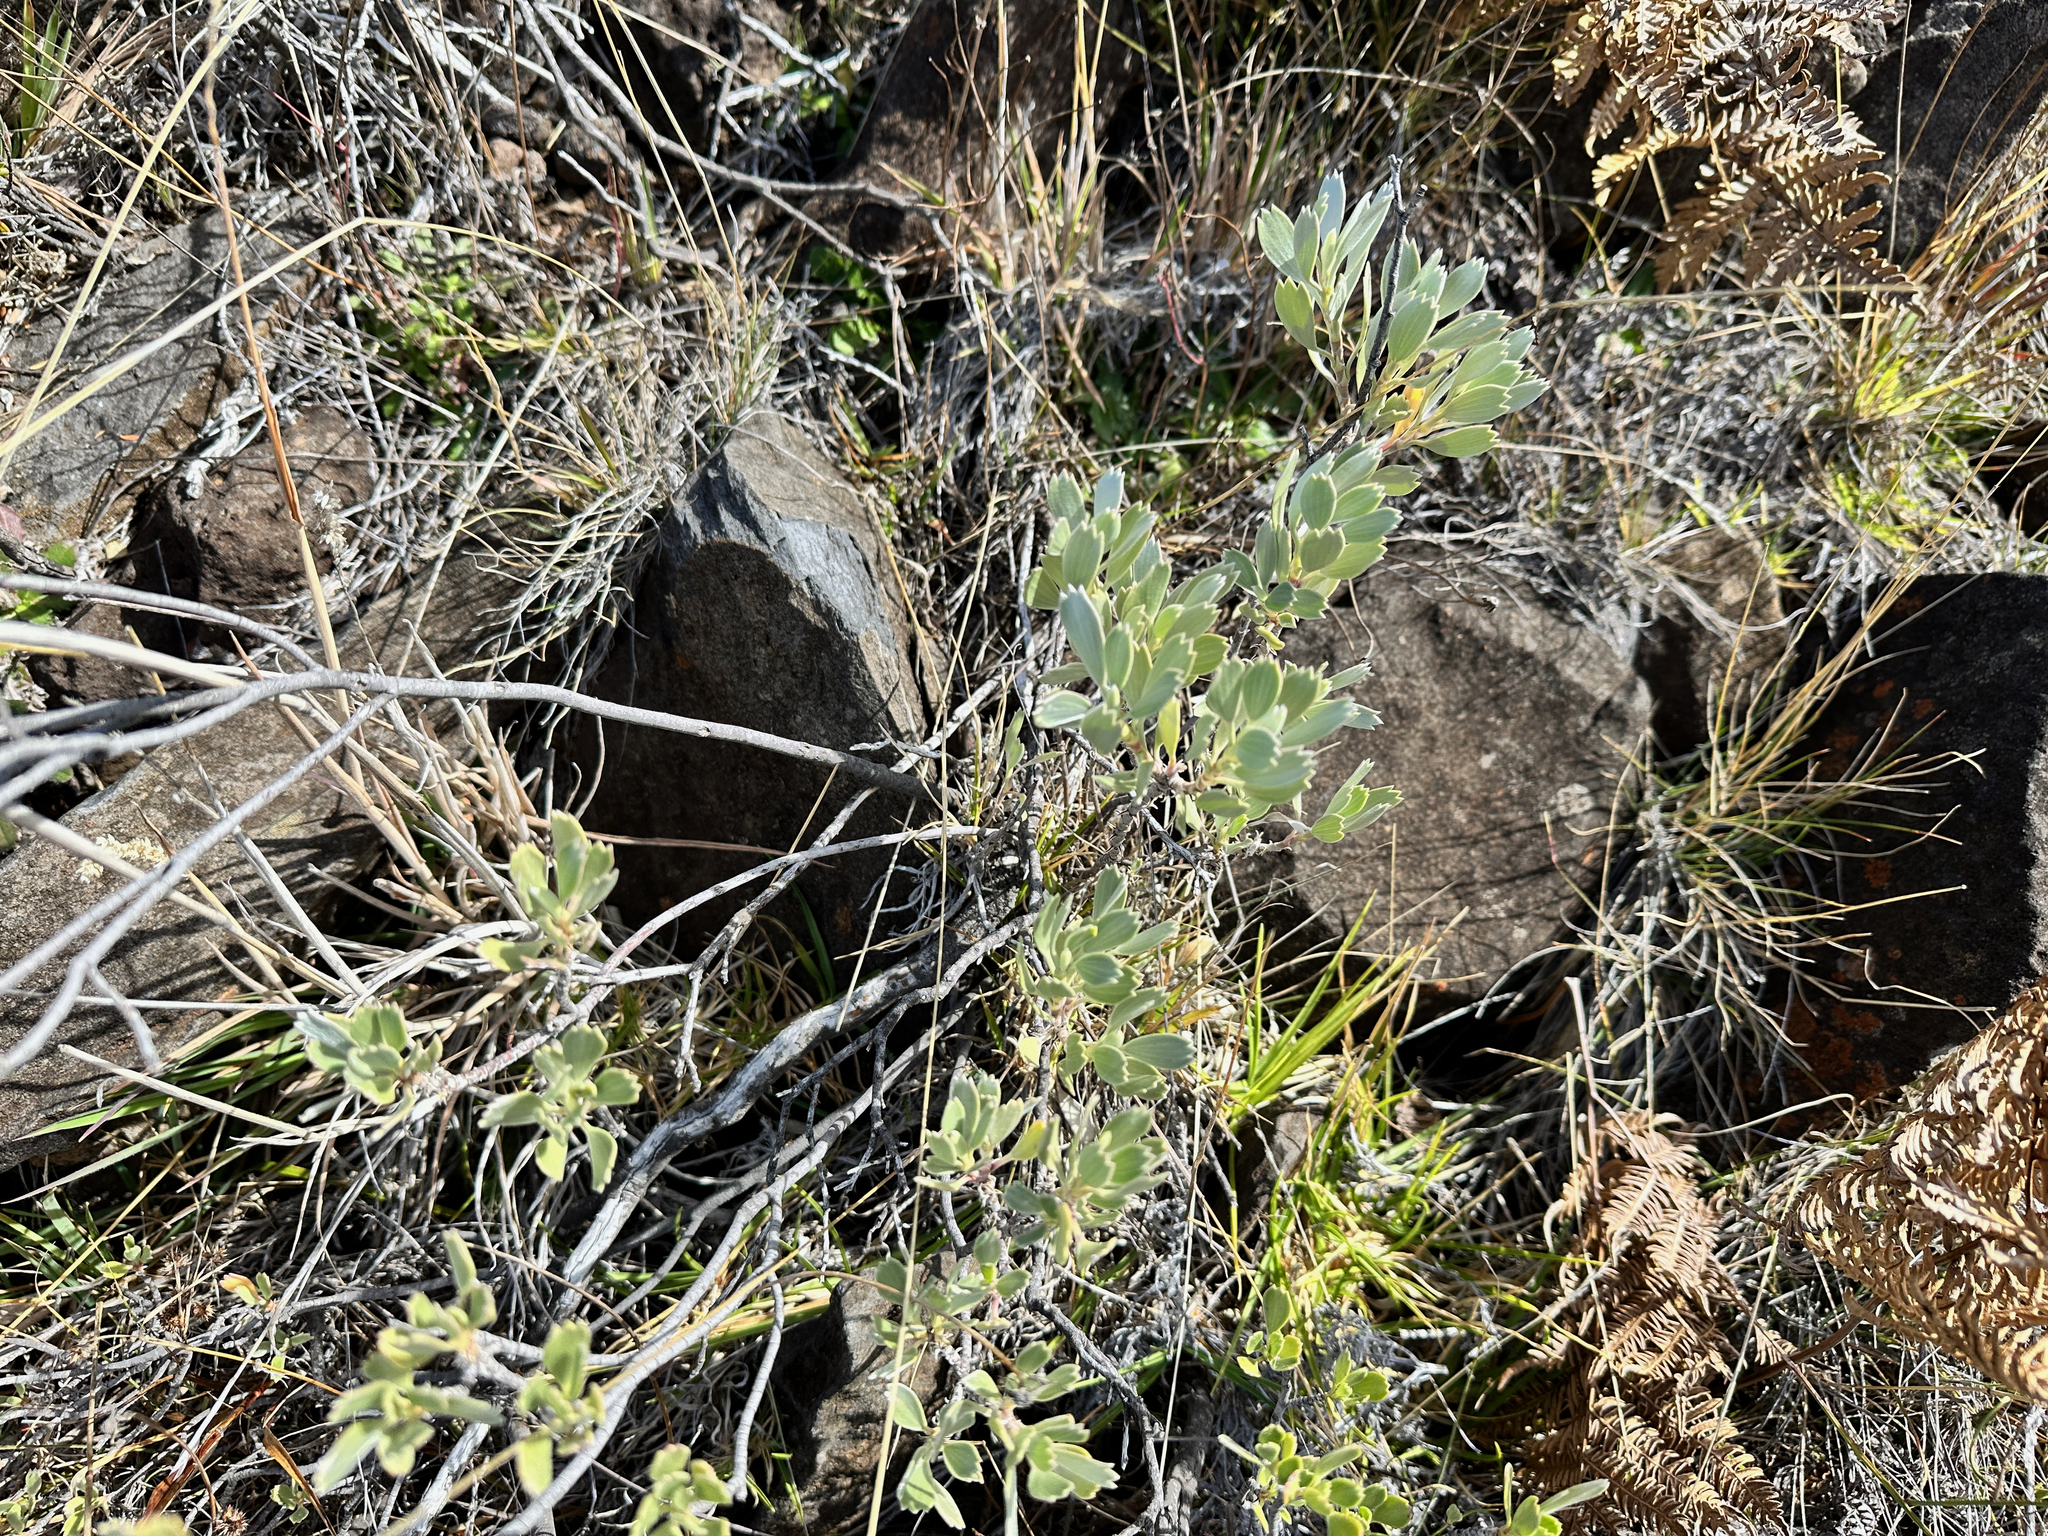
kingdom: Plantae
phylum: Tracheophyta
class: Magnoliopsida
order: Geraniales
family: Geraniaceae
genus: Geranium
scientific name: Geranium cuneatum
